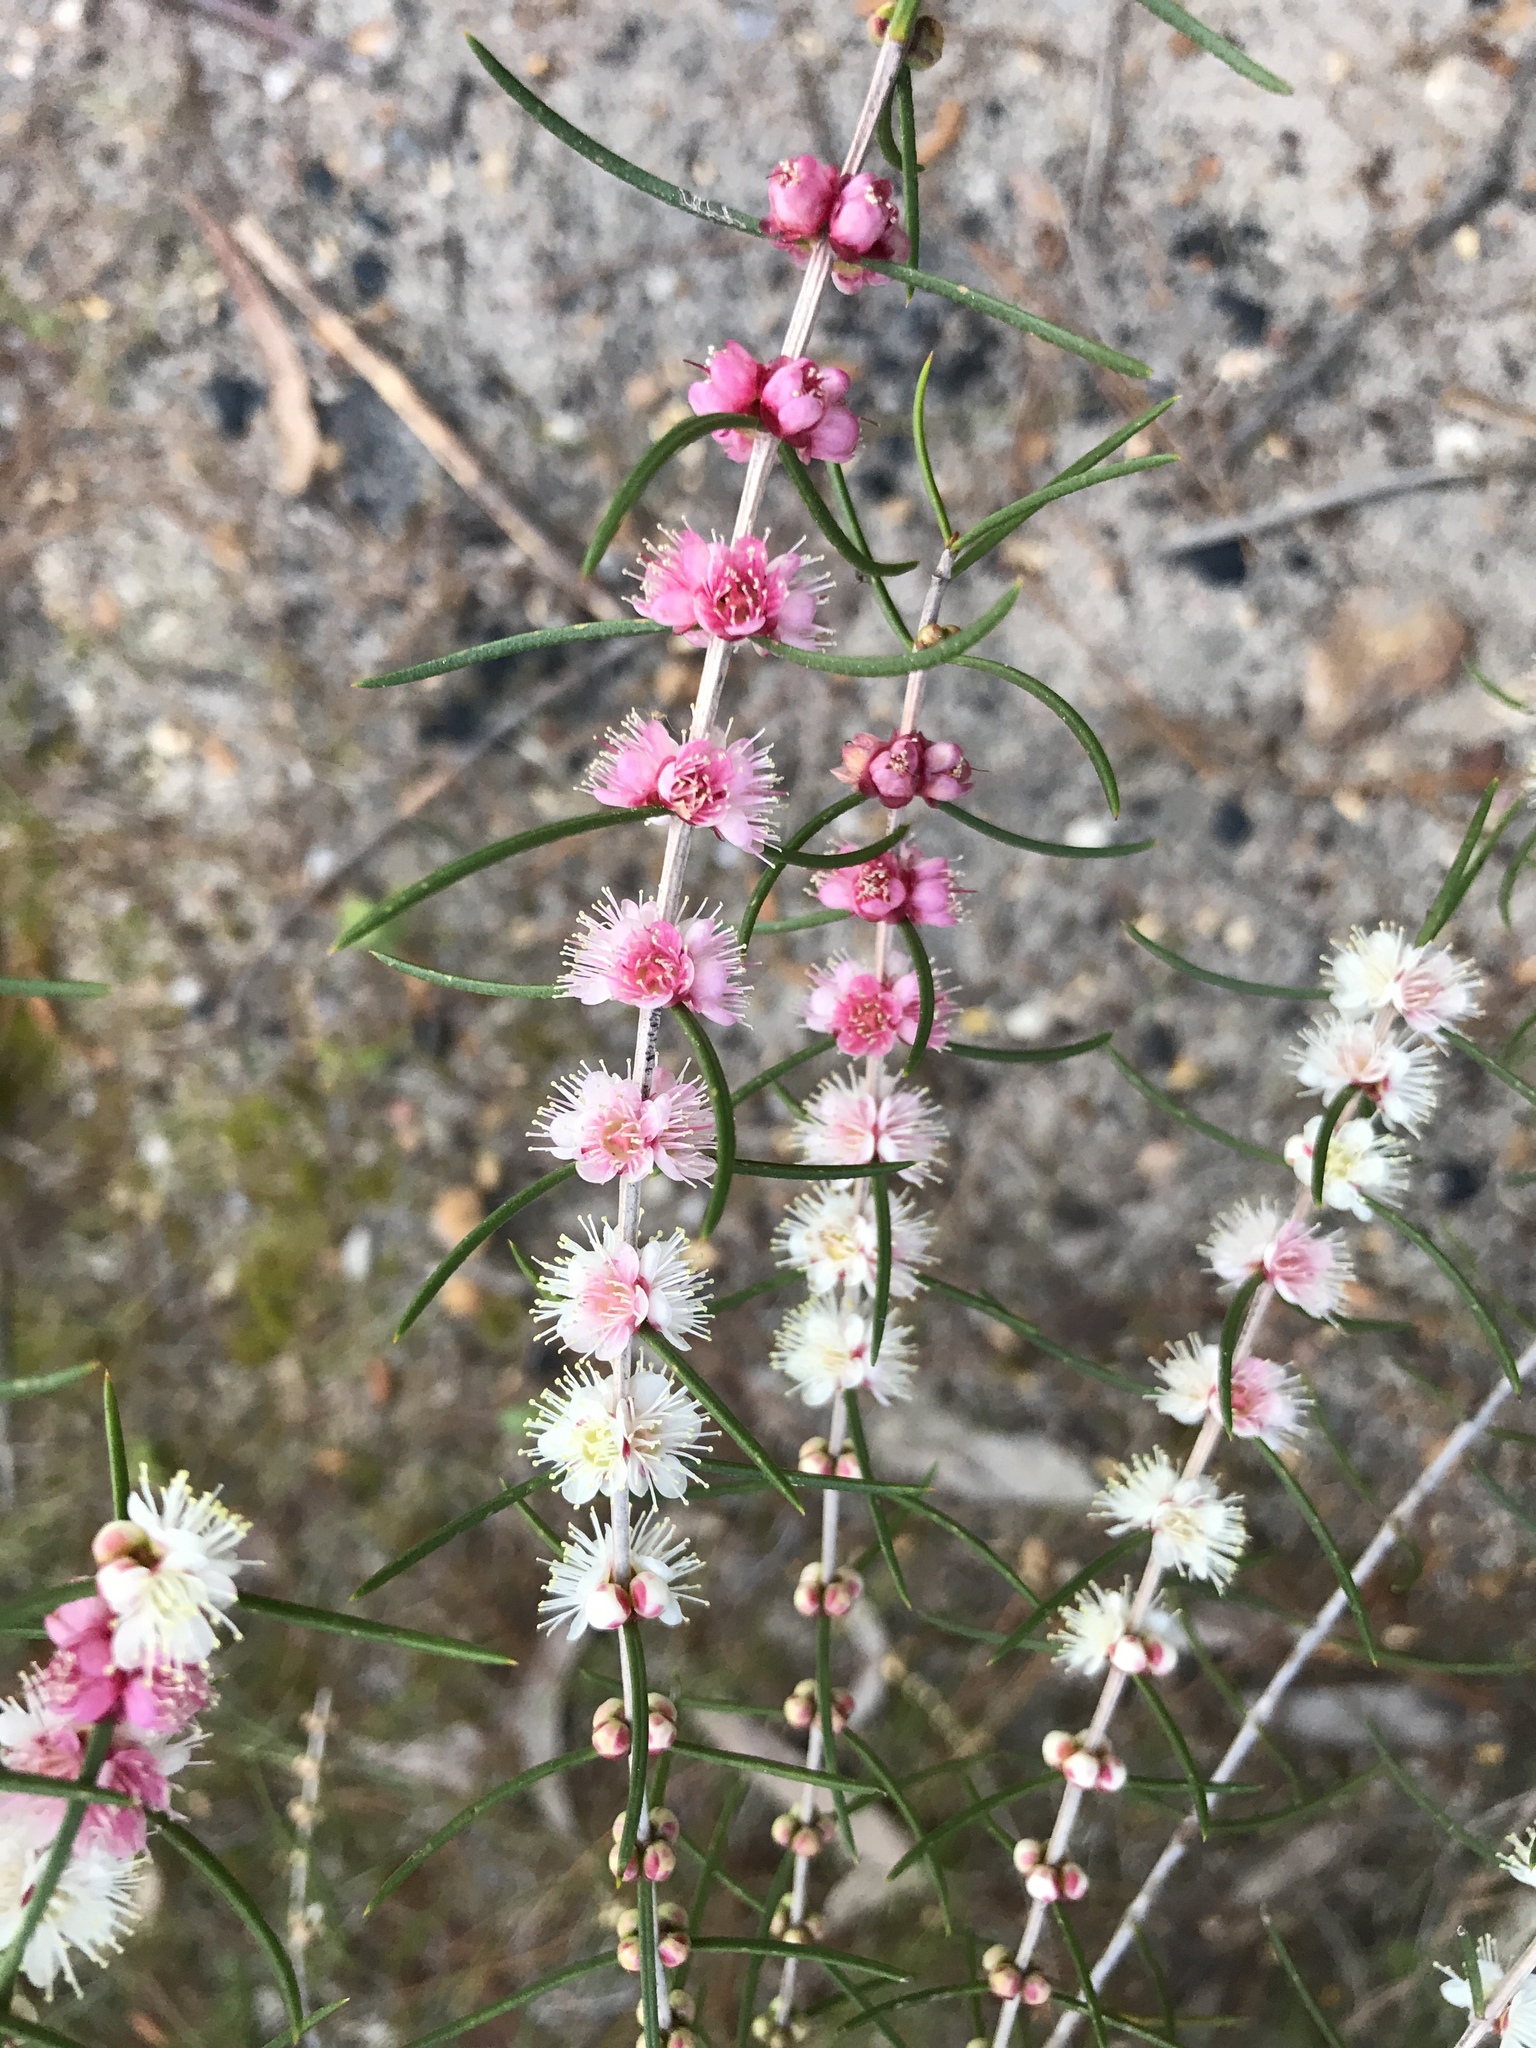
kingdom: Plantae
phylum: Tracheophyta
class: Magnoliopsida
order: Myrtales
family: Myrtaceae
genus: Hypocalymma
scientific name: Hypocalymma angustifolium
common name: White myrtle
